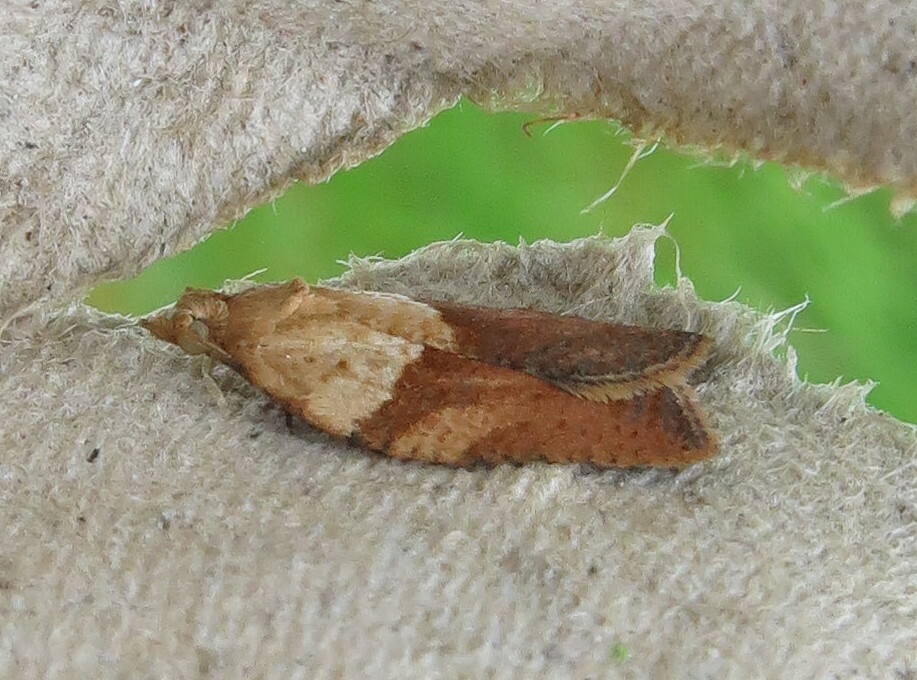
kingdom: Animalia
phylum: Arthropoda
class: Insecta
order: Lepidoptera
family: Tortricidae
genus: Epiphyas
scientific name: Epiphyas postvittana
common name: Light brown apple moth
